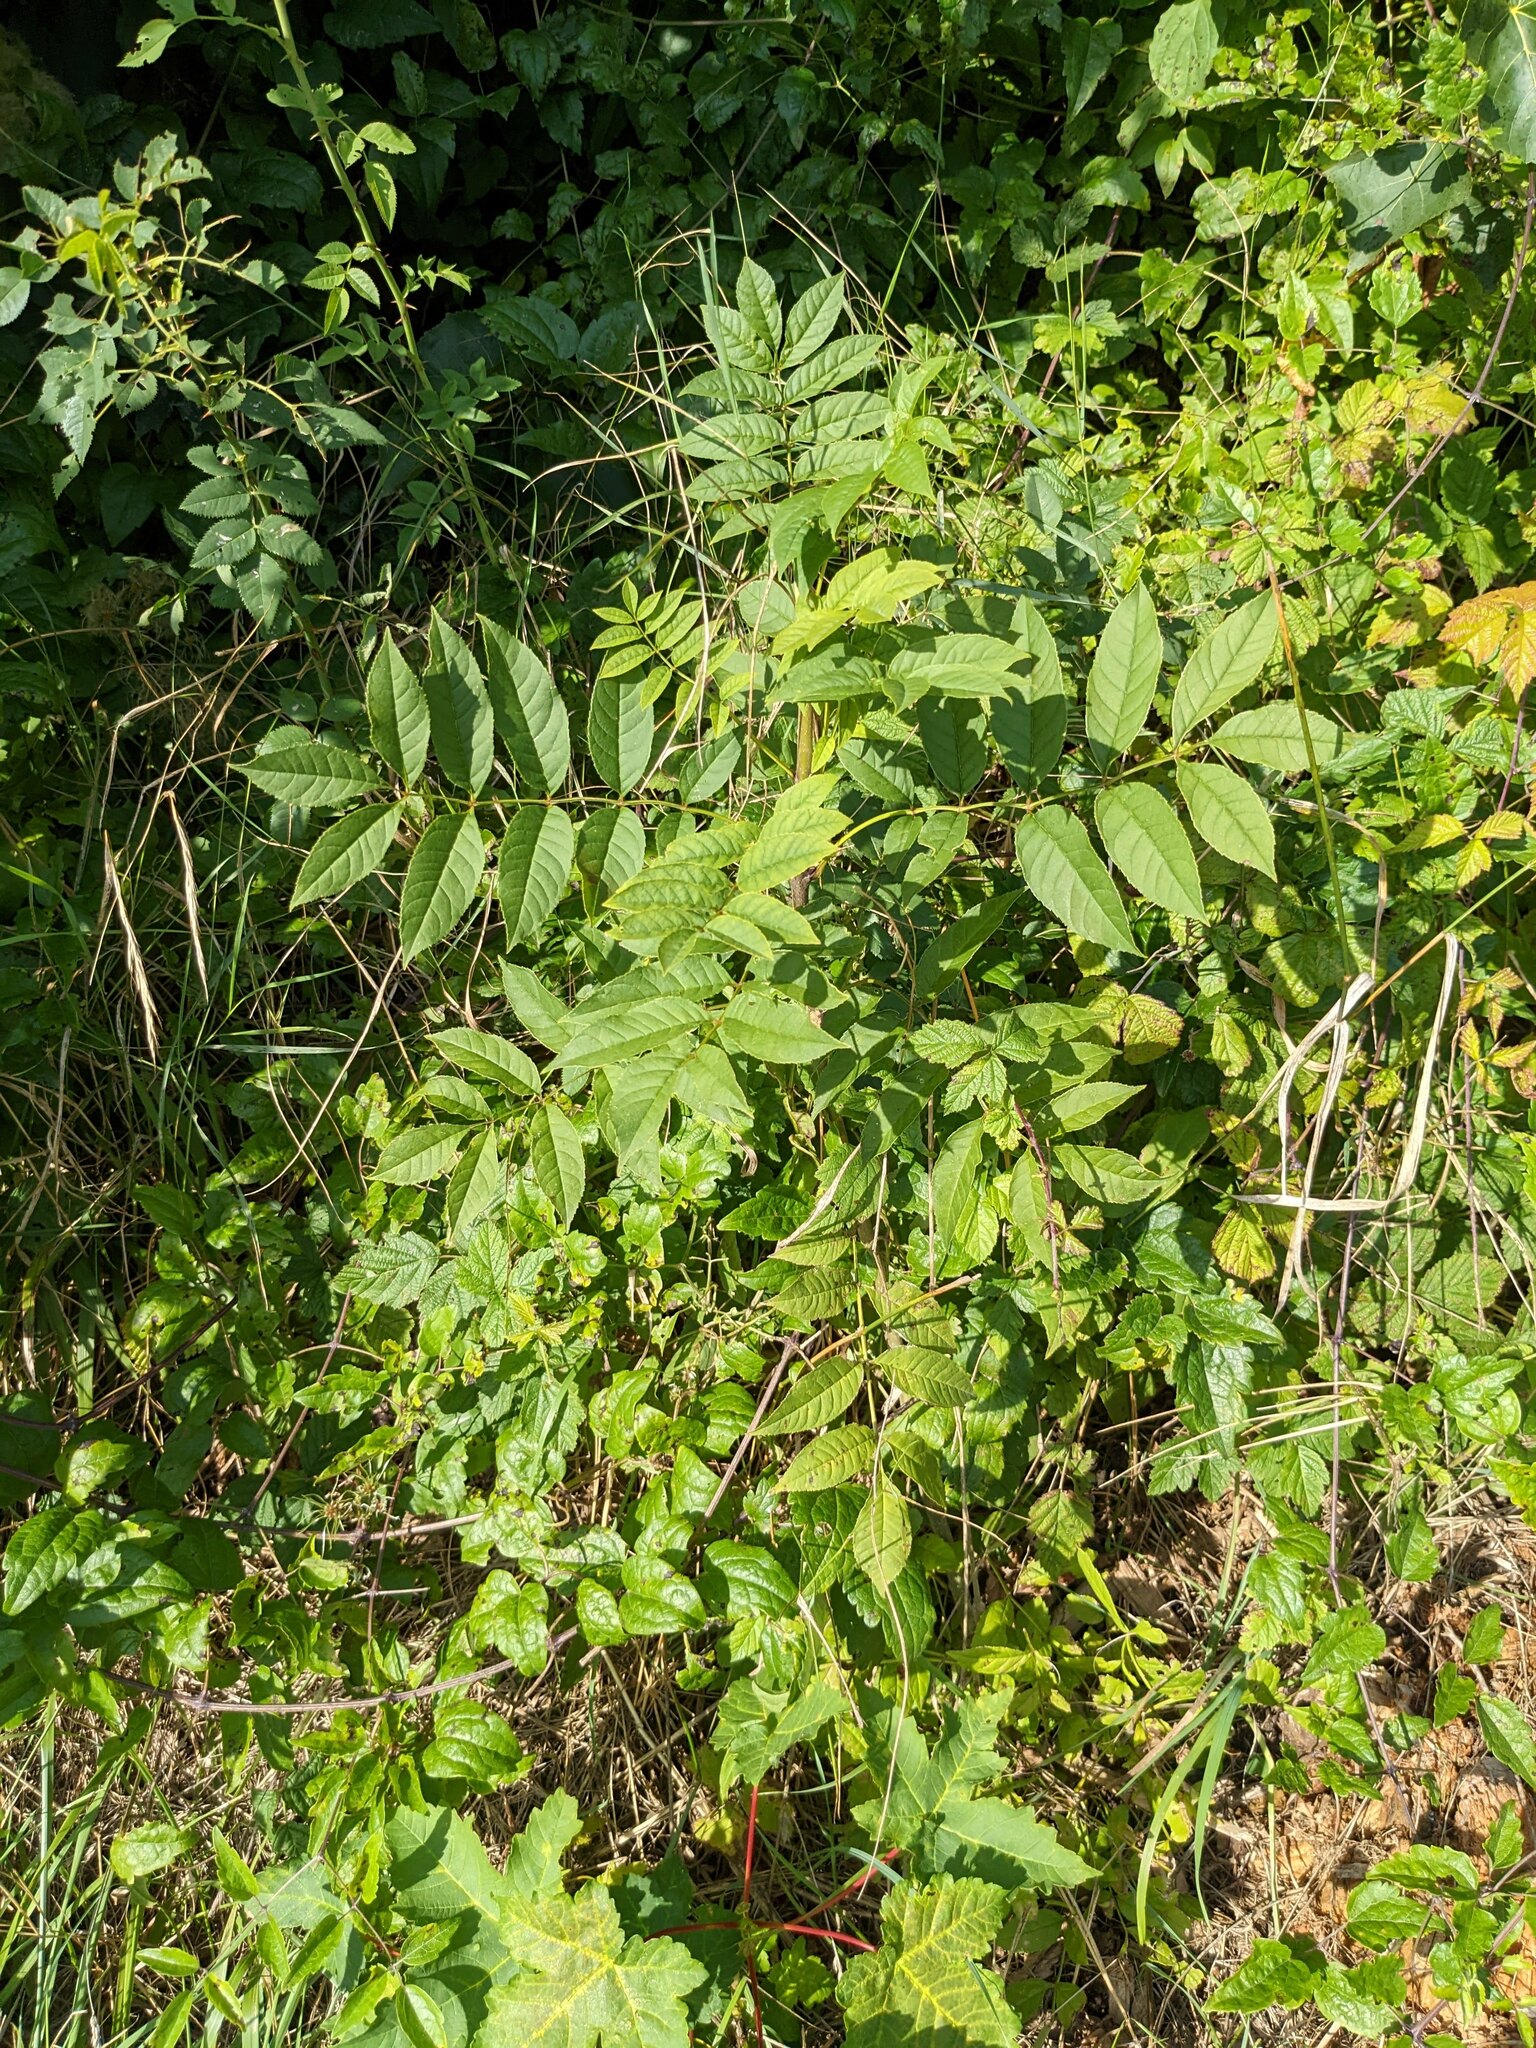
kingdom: Plantae
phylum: Tracheophyta
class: Magnoliopsida
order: Lamiales
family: Oleaceae
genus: Fraxinus
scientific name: Fraxinus excelsior
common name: European ash
